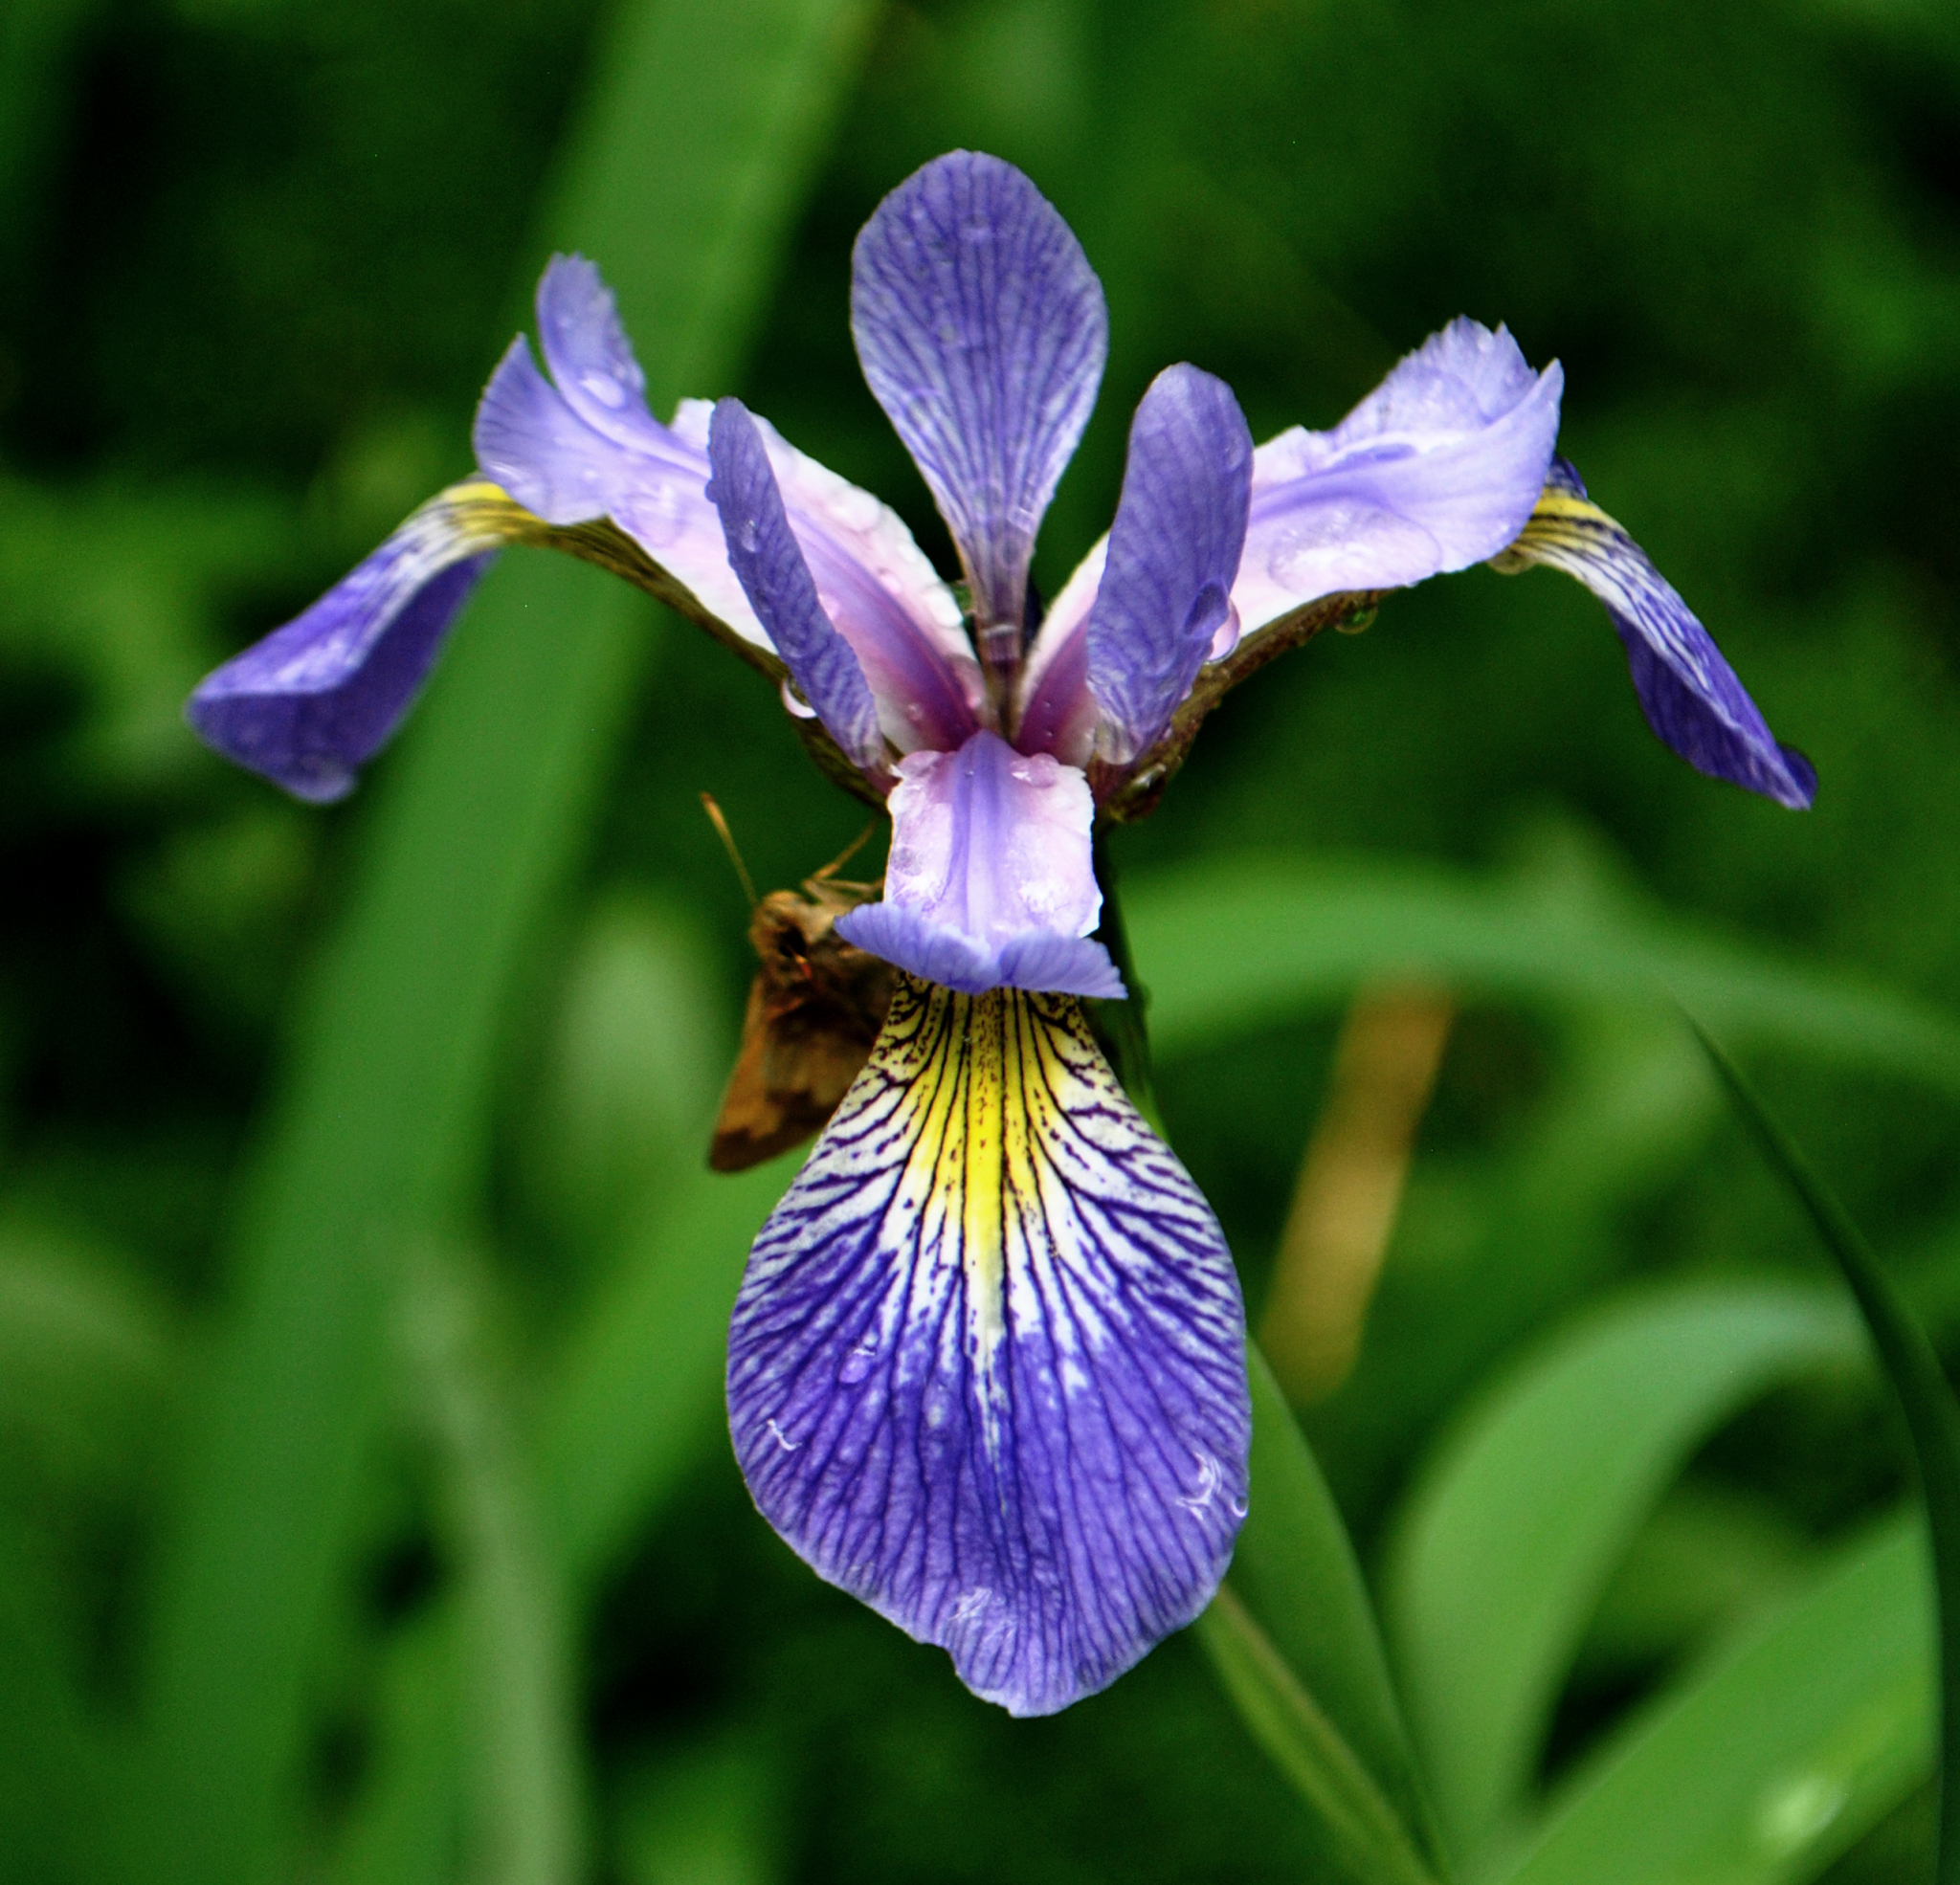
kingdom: Plantae
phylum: Tracheophyta
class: Liliopsida
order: Asparagales
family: Iridaceae
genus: Iris
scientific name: Iris versicolor
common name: Purple iris
